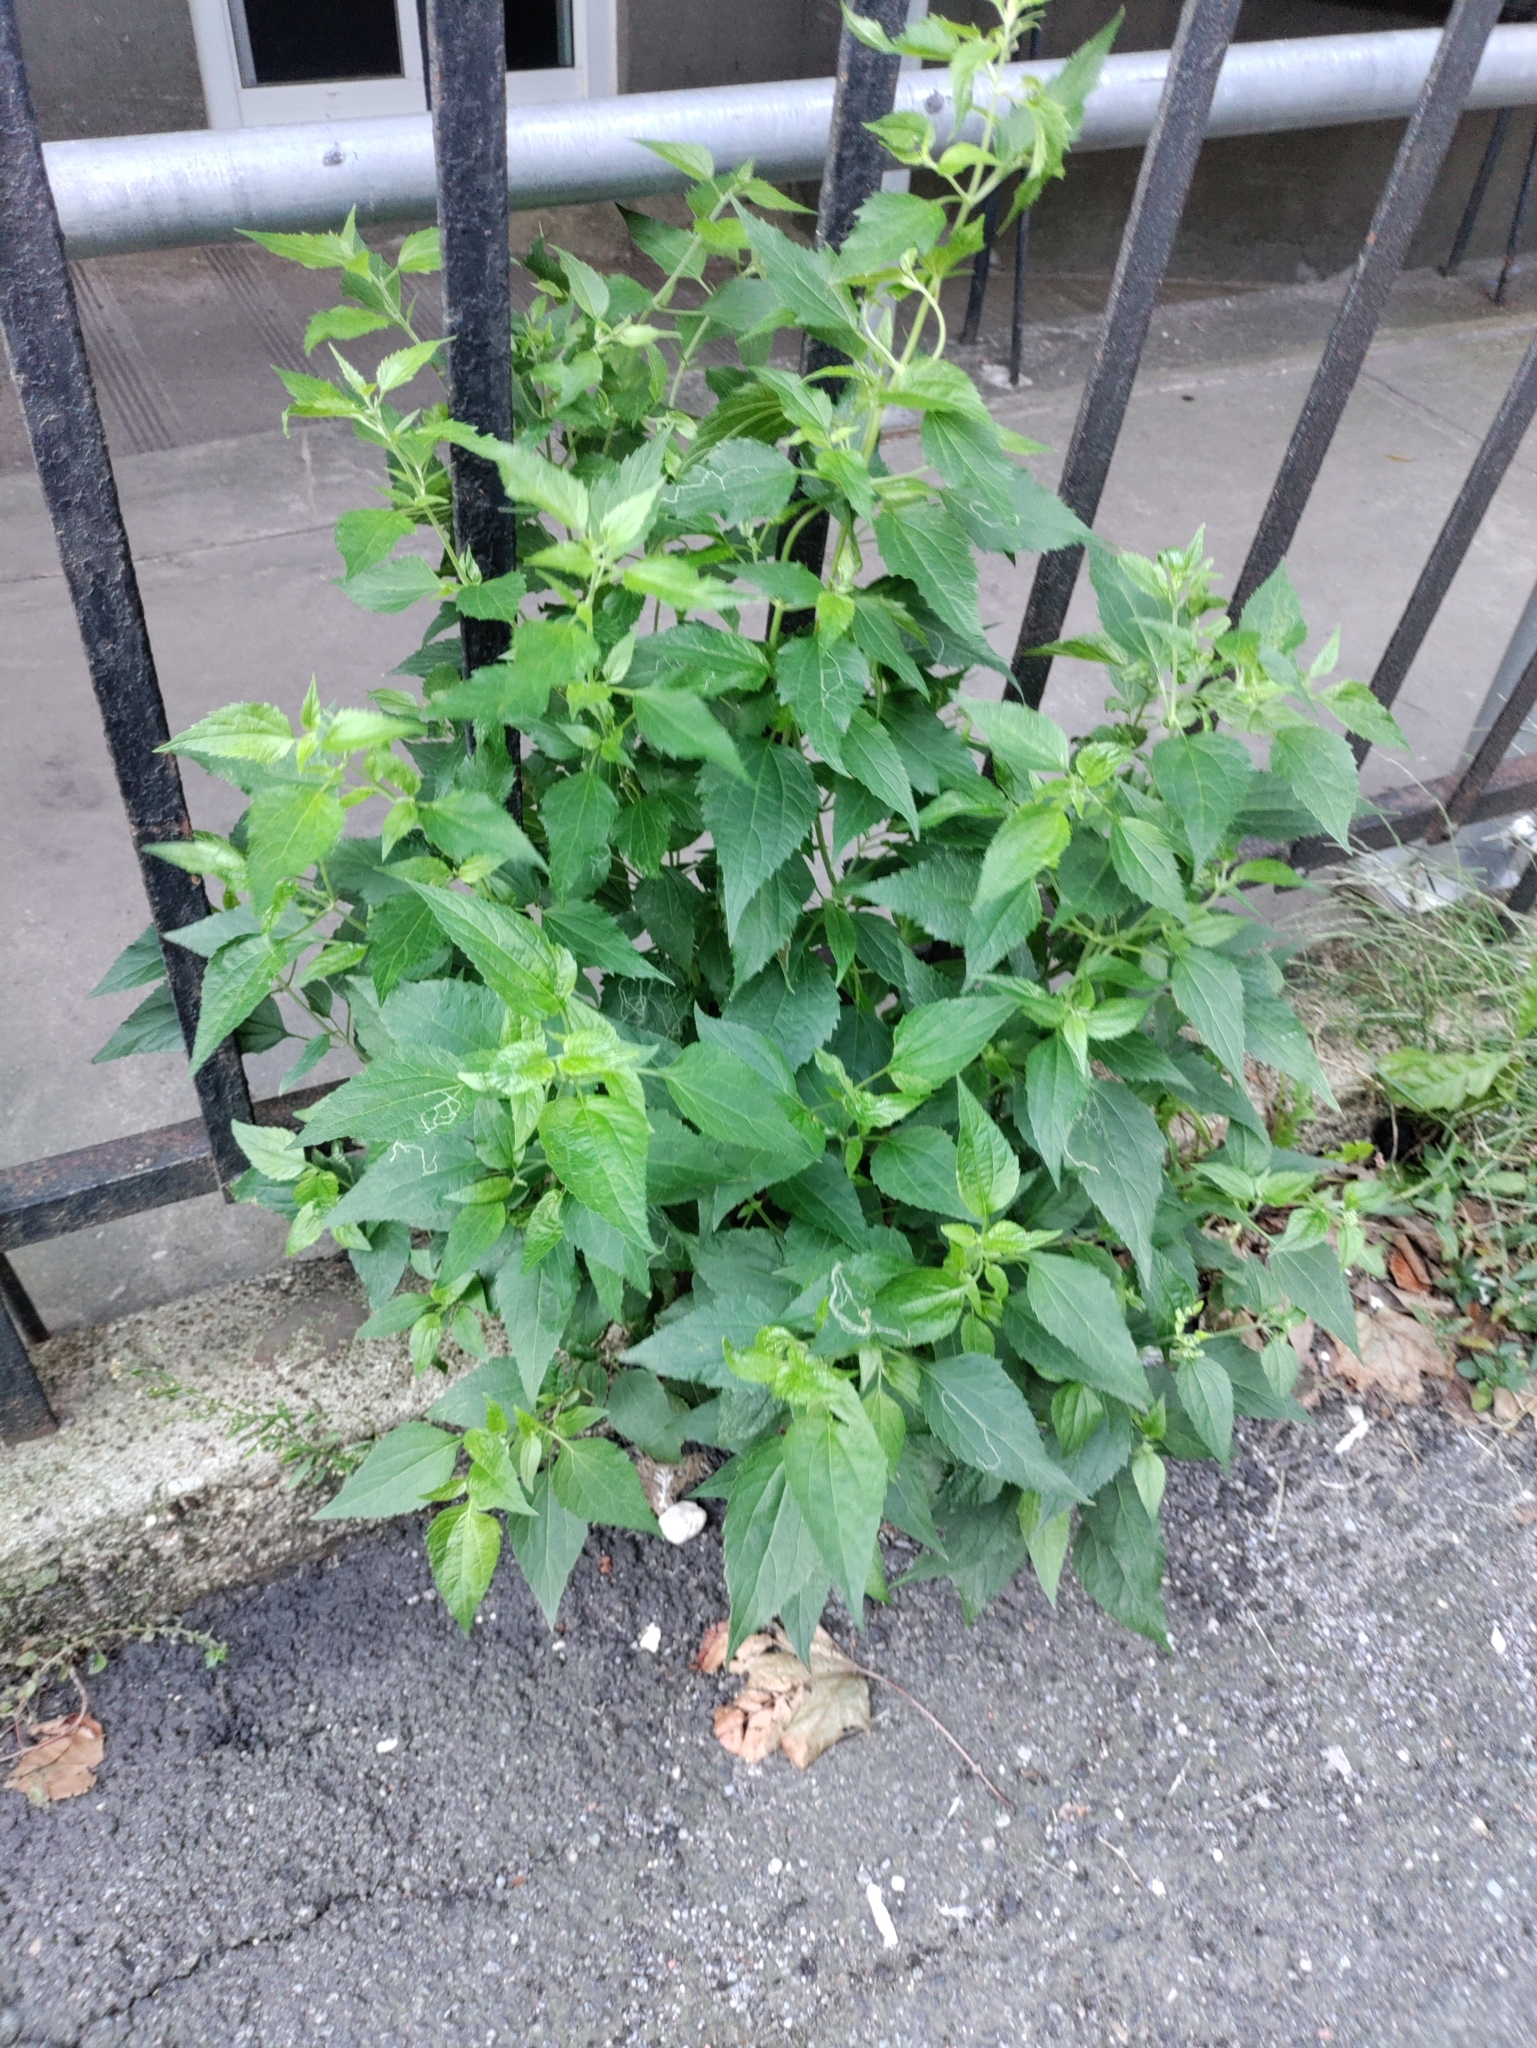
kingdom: Plantae
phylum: Tracheophyta
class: Magnoliopsida
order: Asterales
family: Asteraceae
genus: Ageratina
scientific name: Ageratina altissima
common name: White snakeroot
